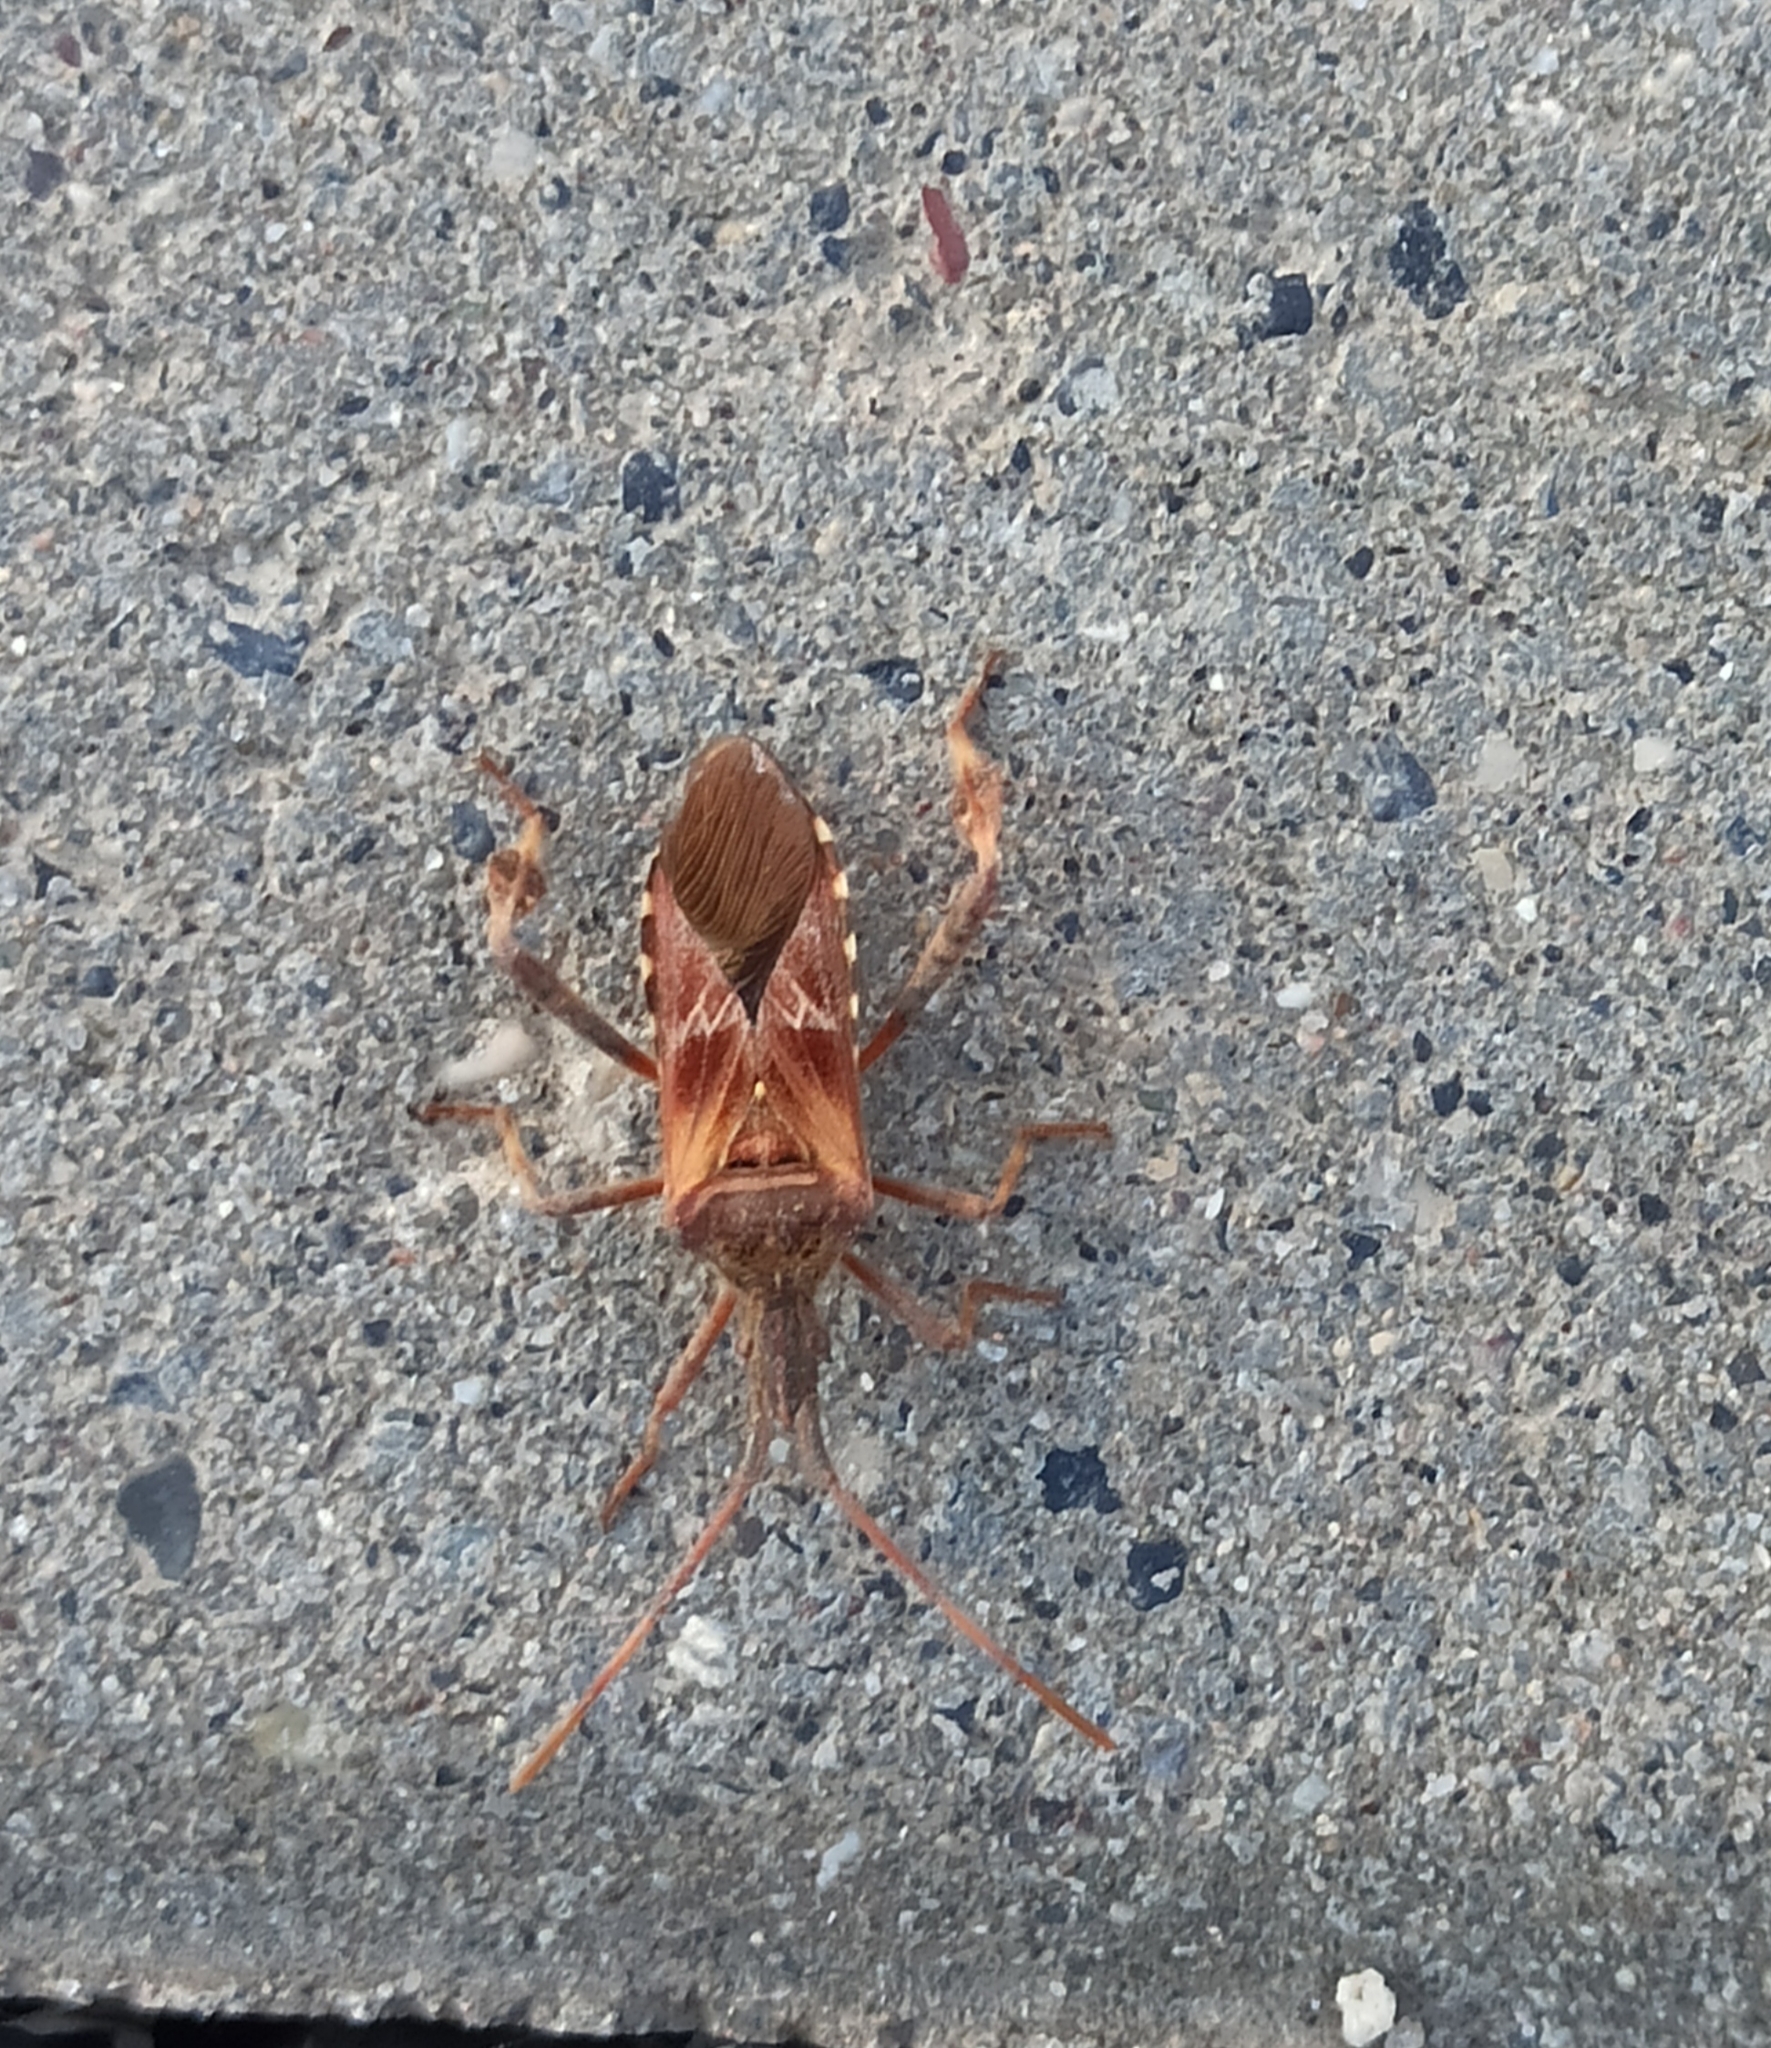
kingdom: Animalia
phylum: Arthropoda
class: Insecta
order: Hemiptera
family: Coreidae
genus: Leptoglossus
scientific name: Leptoglossus occidentalis
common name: Western conifer-seed bug
